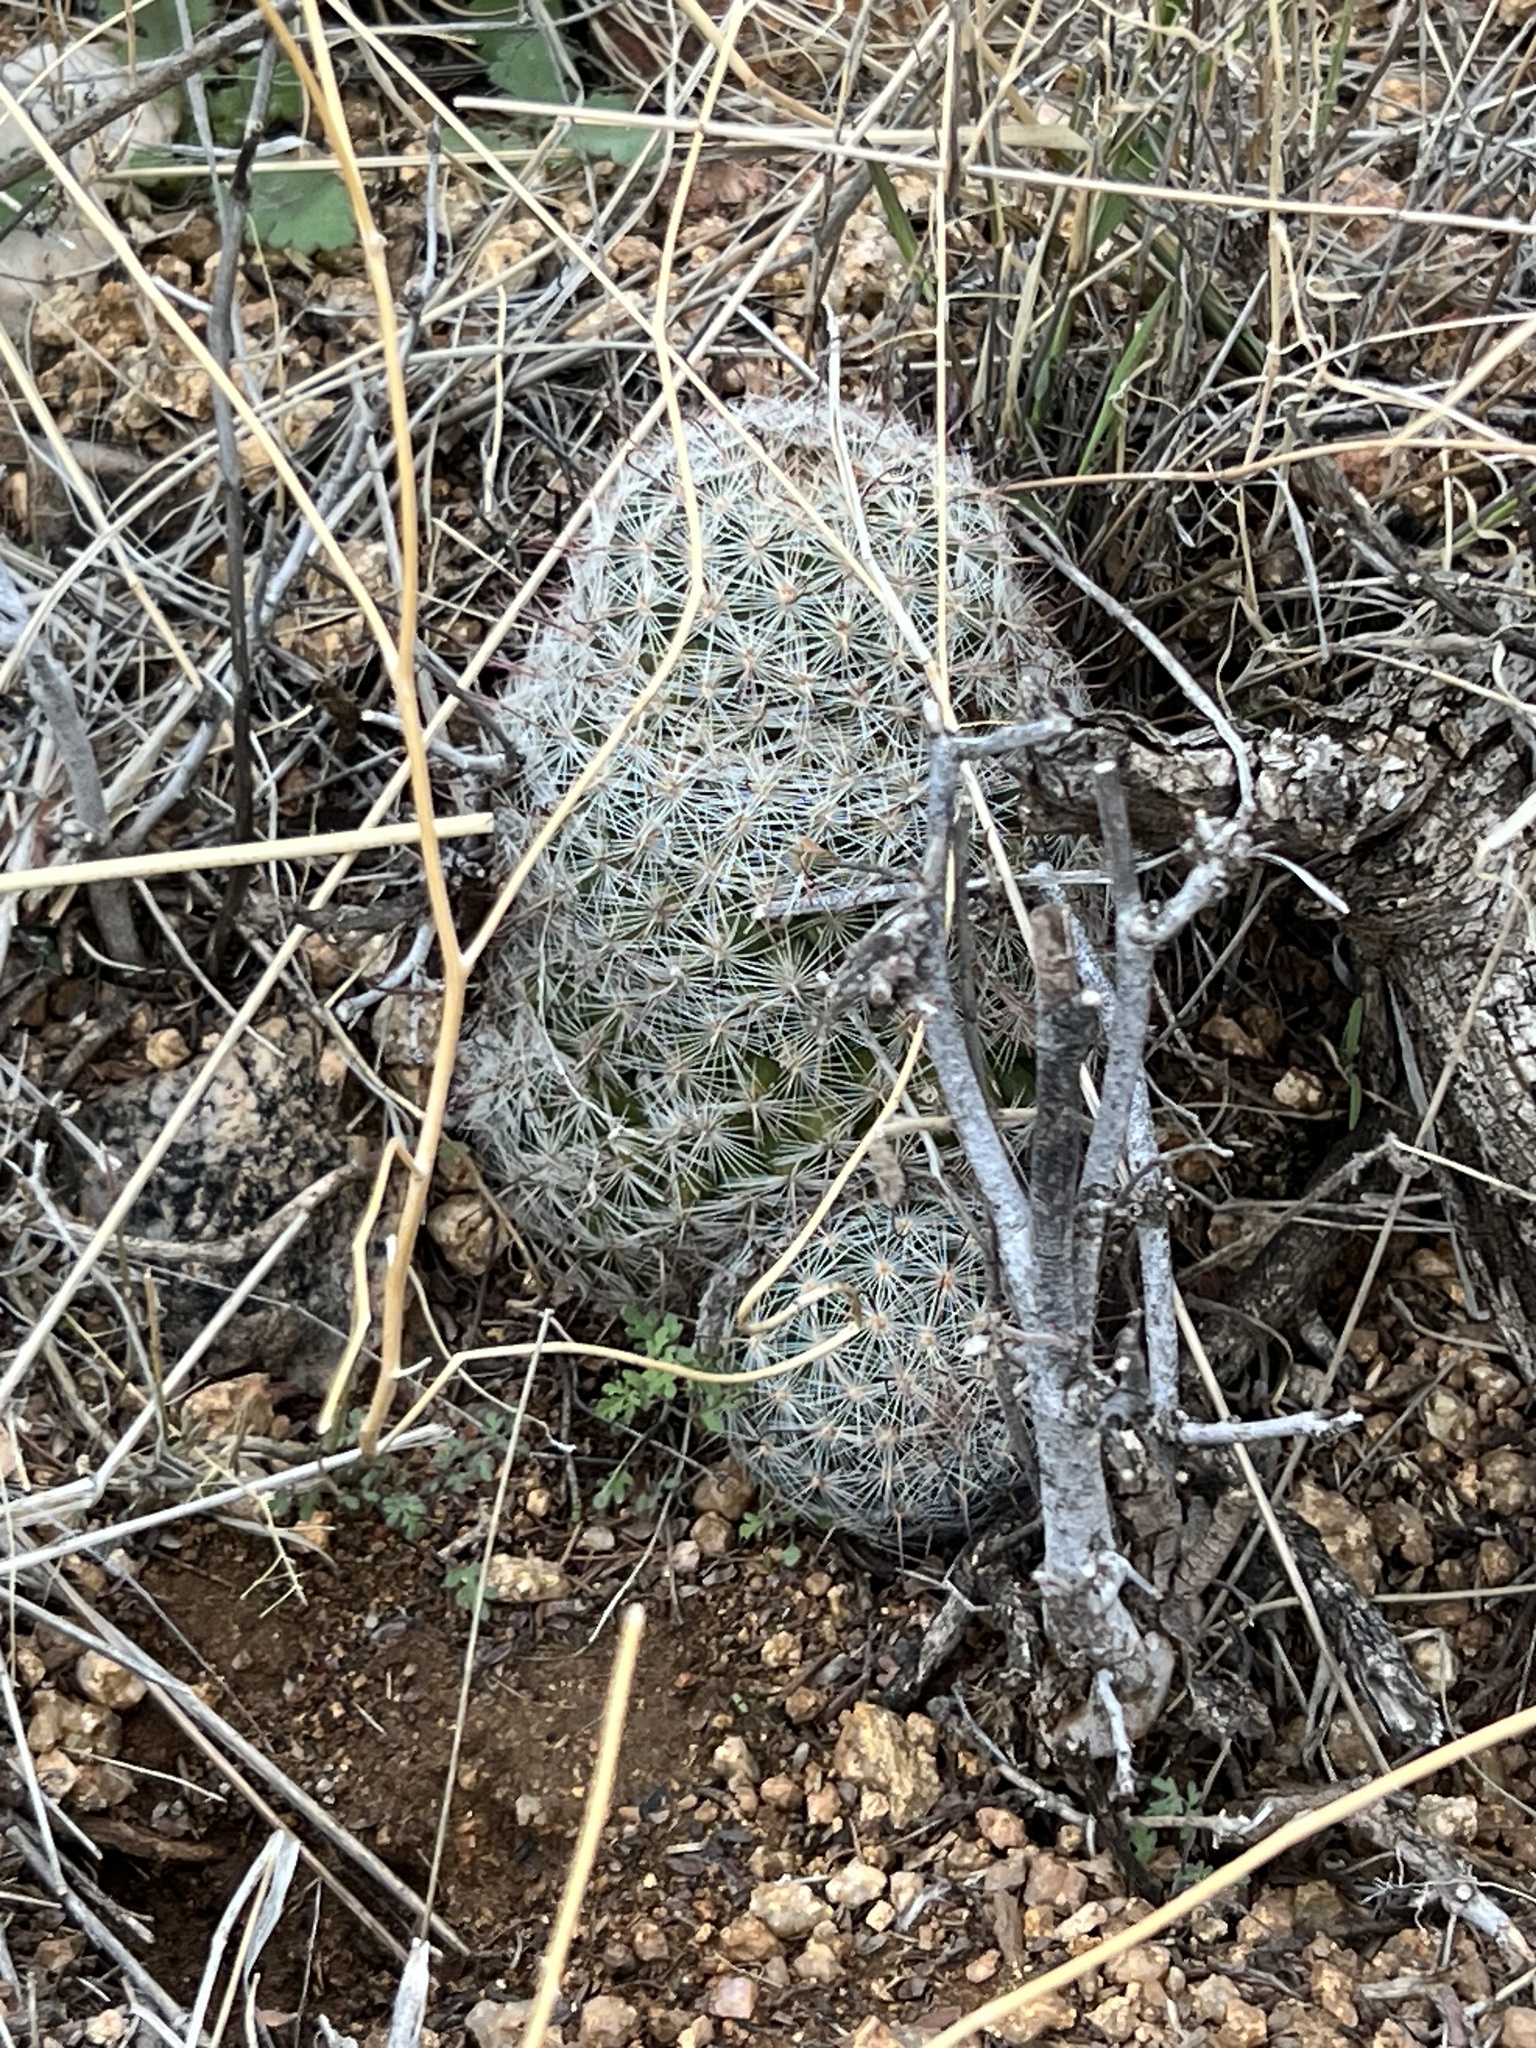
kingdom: Plantae
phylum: Tracheophyta
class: Magnoliopsida
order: Caryophyllales
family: Cactaceae
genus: Cochemiea
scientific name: Cochemiea grahamii
